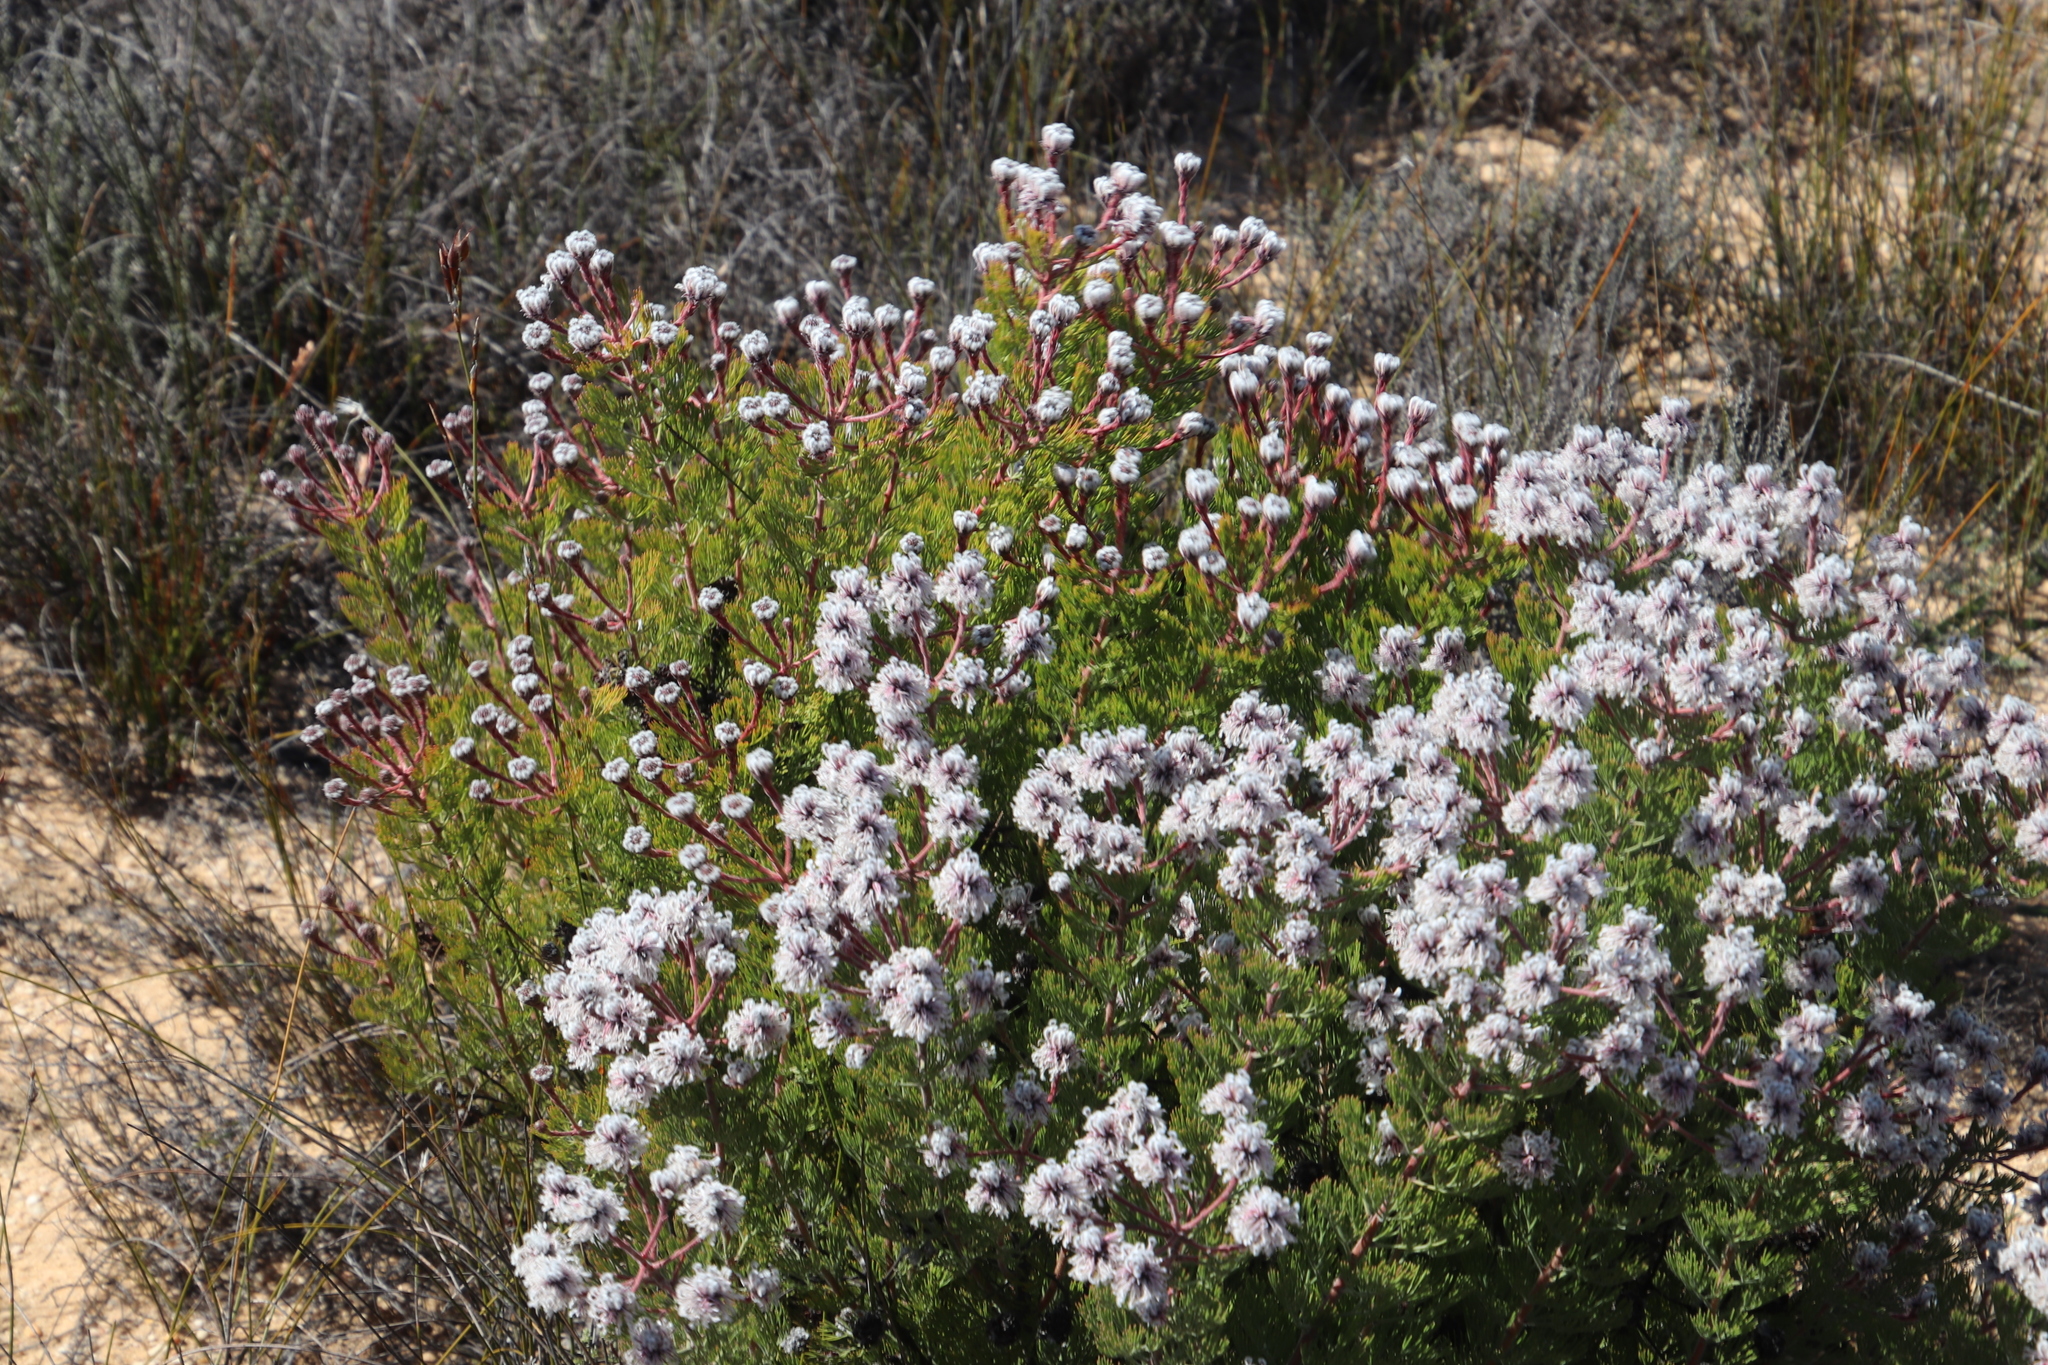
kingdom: Plantae
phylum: Tracheophyta
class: Magnoliopsida
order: Proteales
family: Proteaceae
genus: Serruria
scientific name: Serruria aitonii
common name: Marshmallow spiderhead
